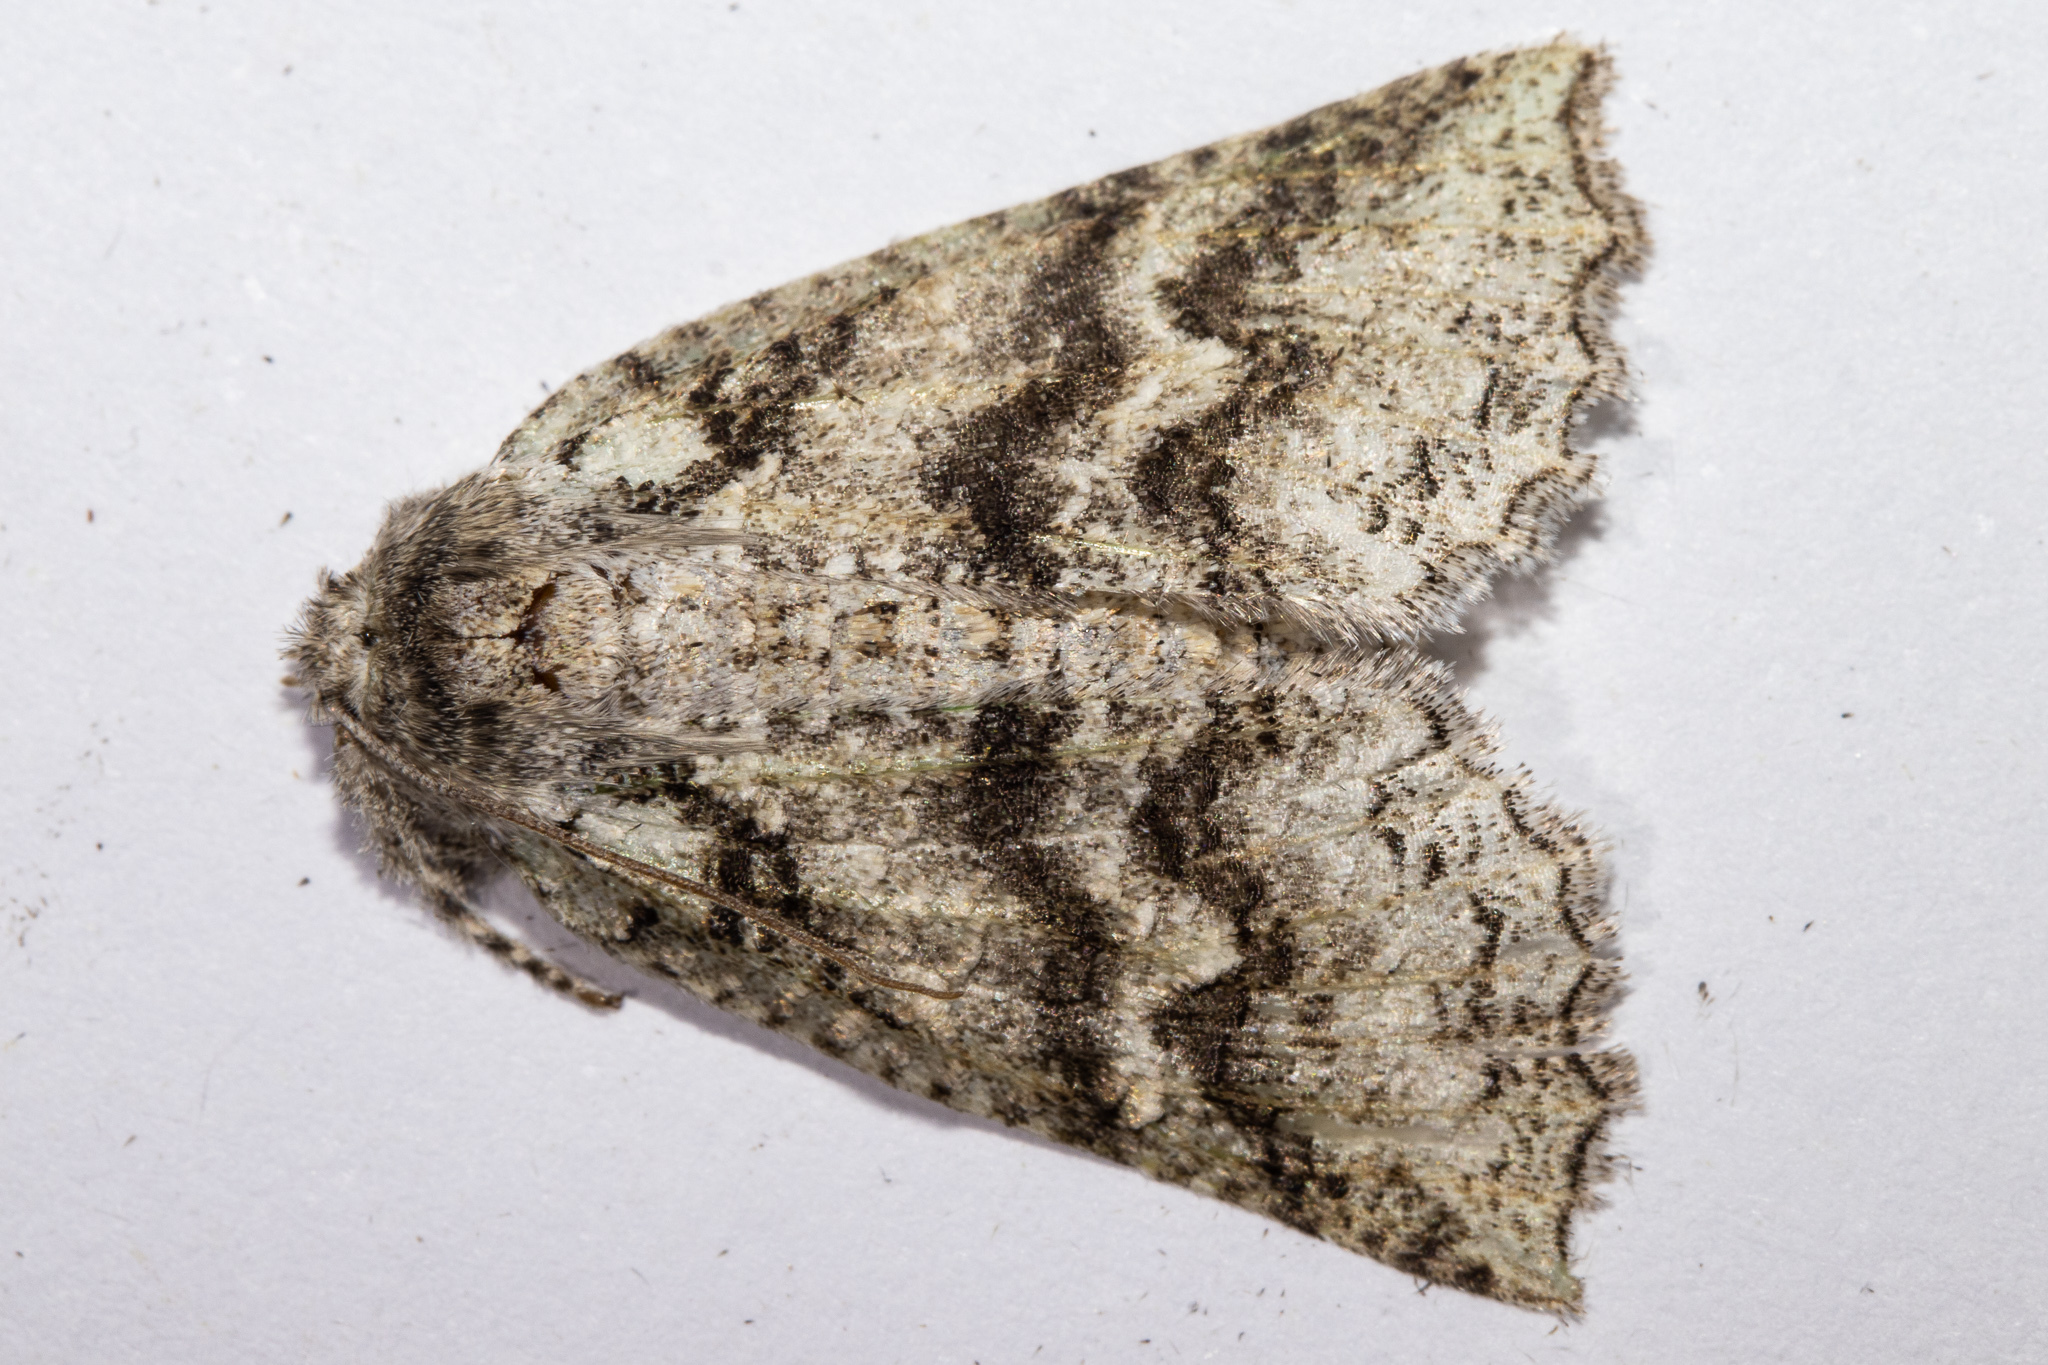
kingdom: Animalia
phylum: Arthropoda
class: Insecta
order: Lepidoptera
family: Geometridae
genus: Declana
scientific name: Declana floccosa
